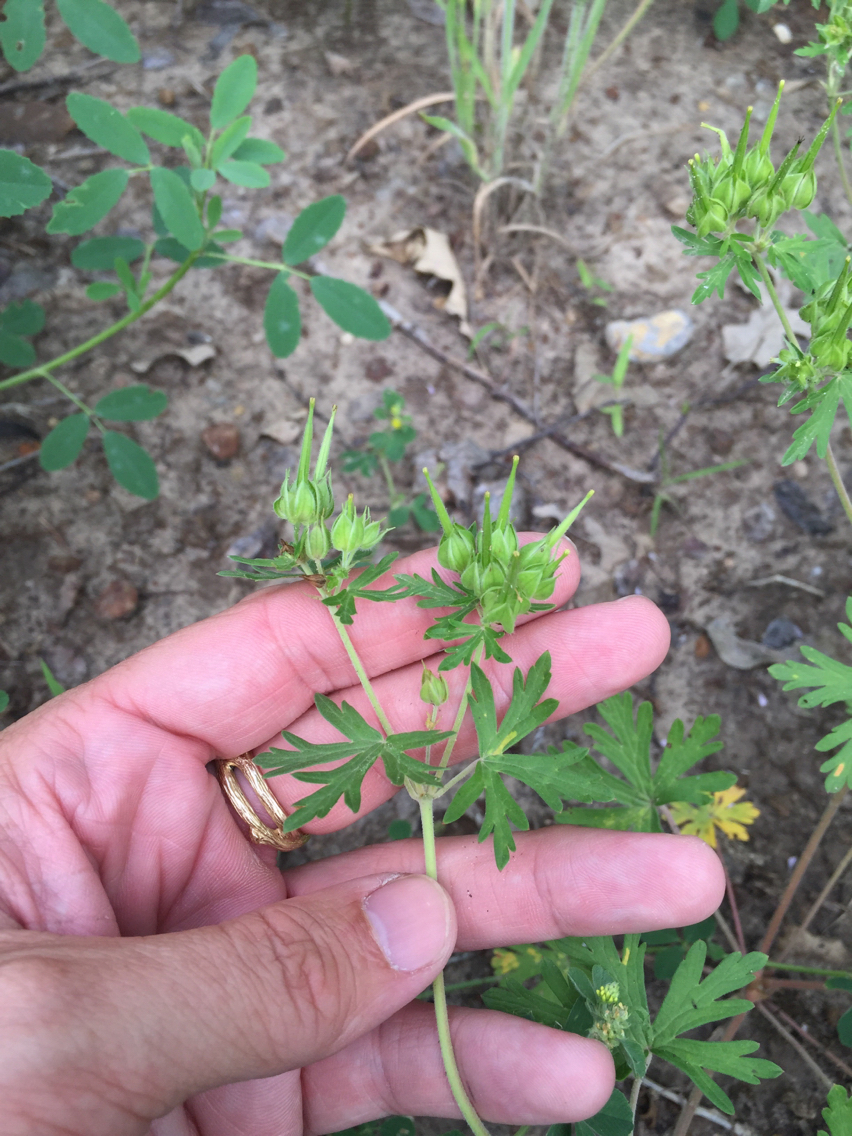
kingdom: Plantae
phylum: Tracheophyta
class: Magnoliopsida
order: Geraniales
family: Geraniaceae
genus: Geranium
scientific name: Geranium carolinianum
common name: Carolina crane's-bill
